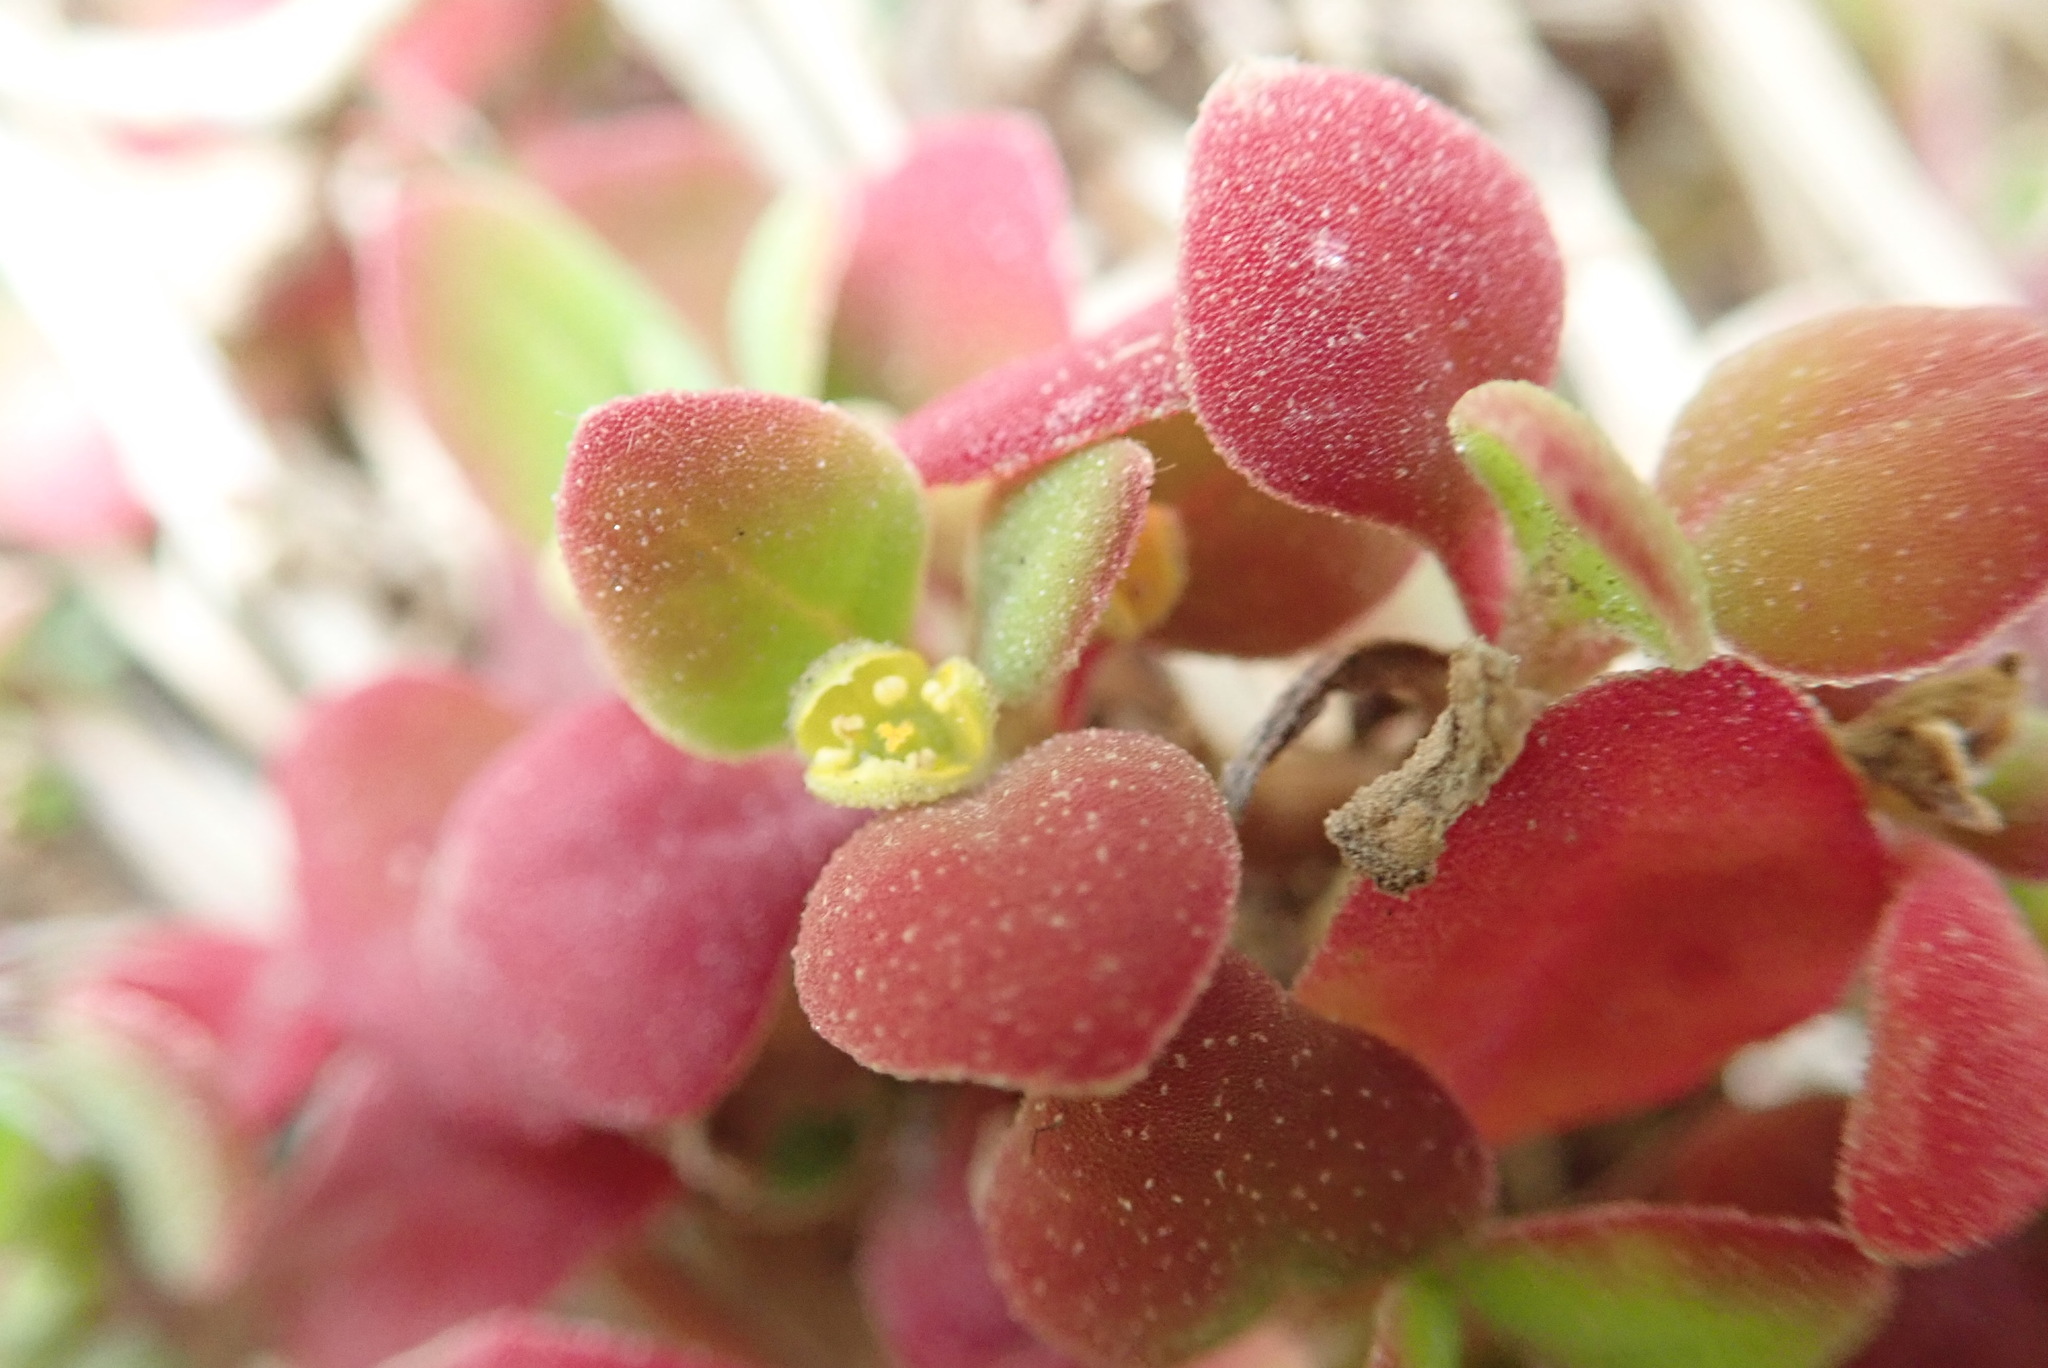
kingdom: Plantae
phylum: Tracheophyta
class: Magnoliopsida
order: Caryophyllales
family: Aizoaceae
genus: Tetragonia
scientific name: Tetragonia implexicoma
